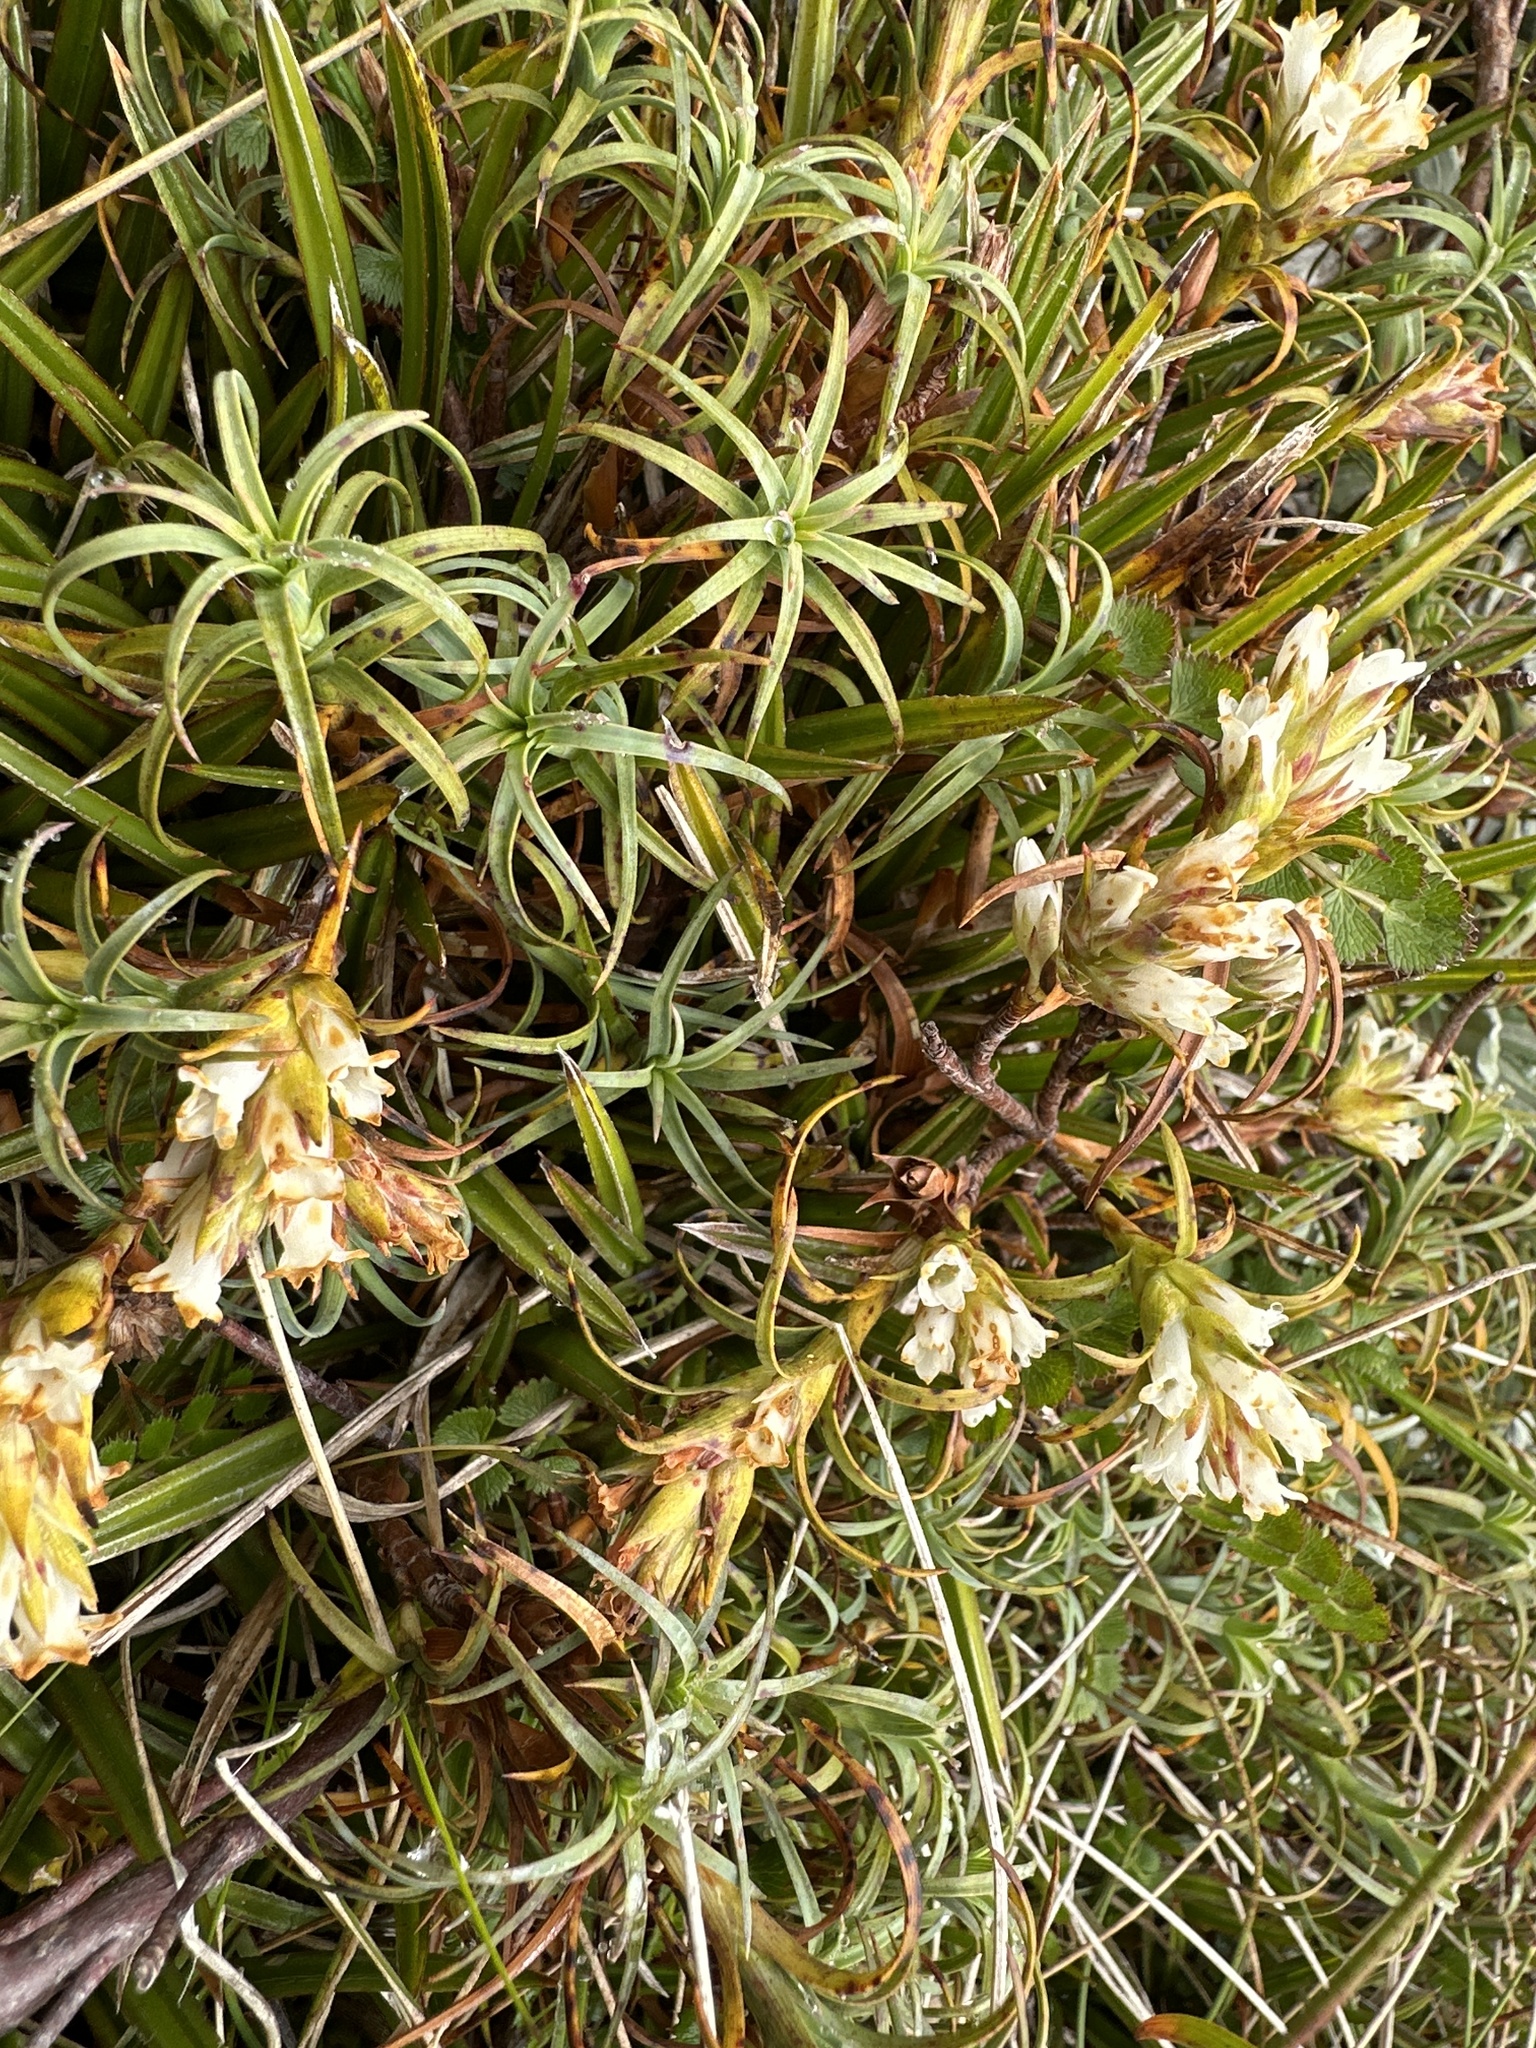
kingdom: Plantae
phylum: Tracheophyta
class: Magnoliopsida
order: Ericales
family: Ericaceae
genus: Dracophyllum
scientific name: Dracophyllum recurvum
